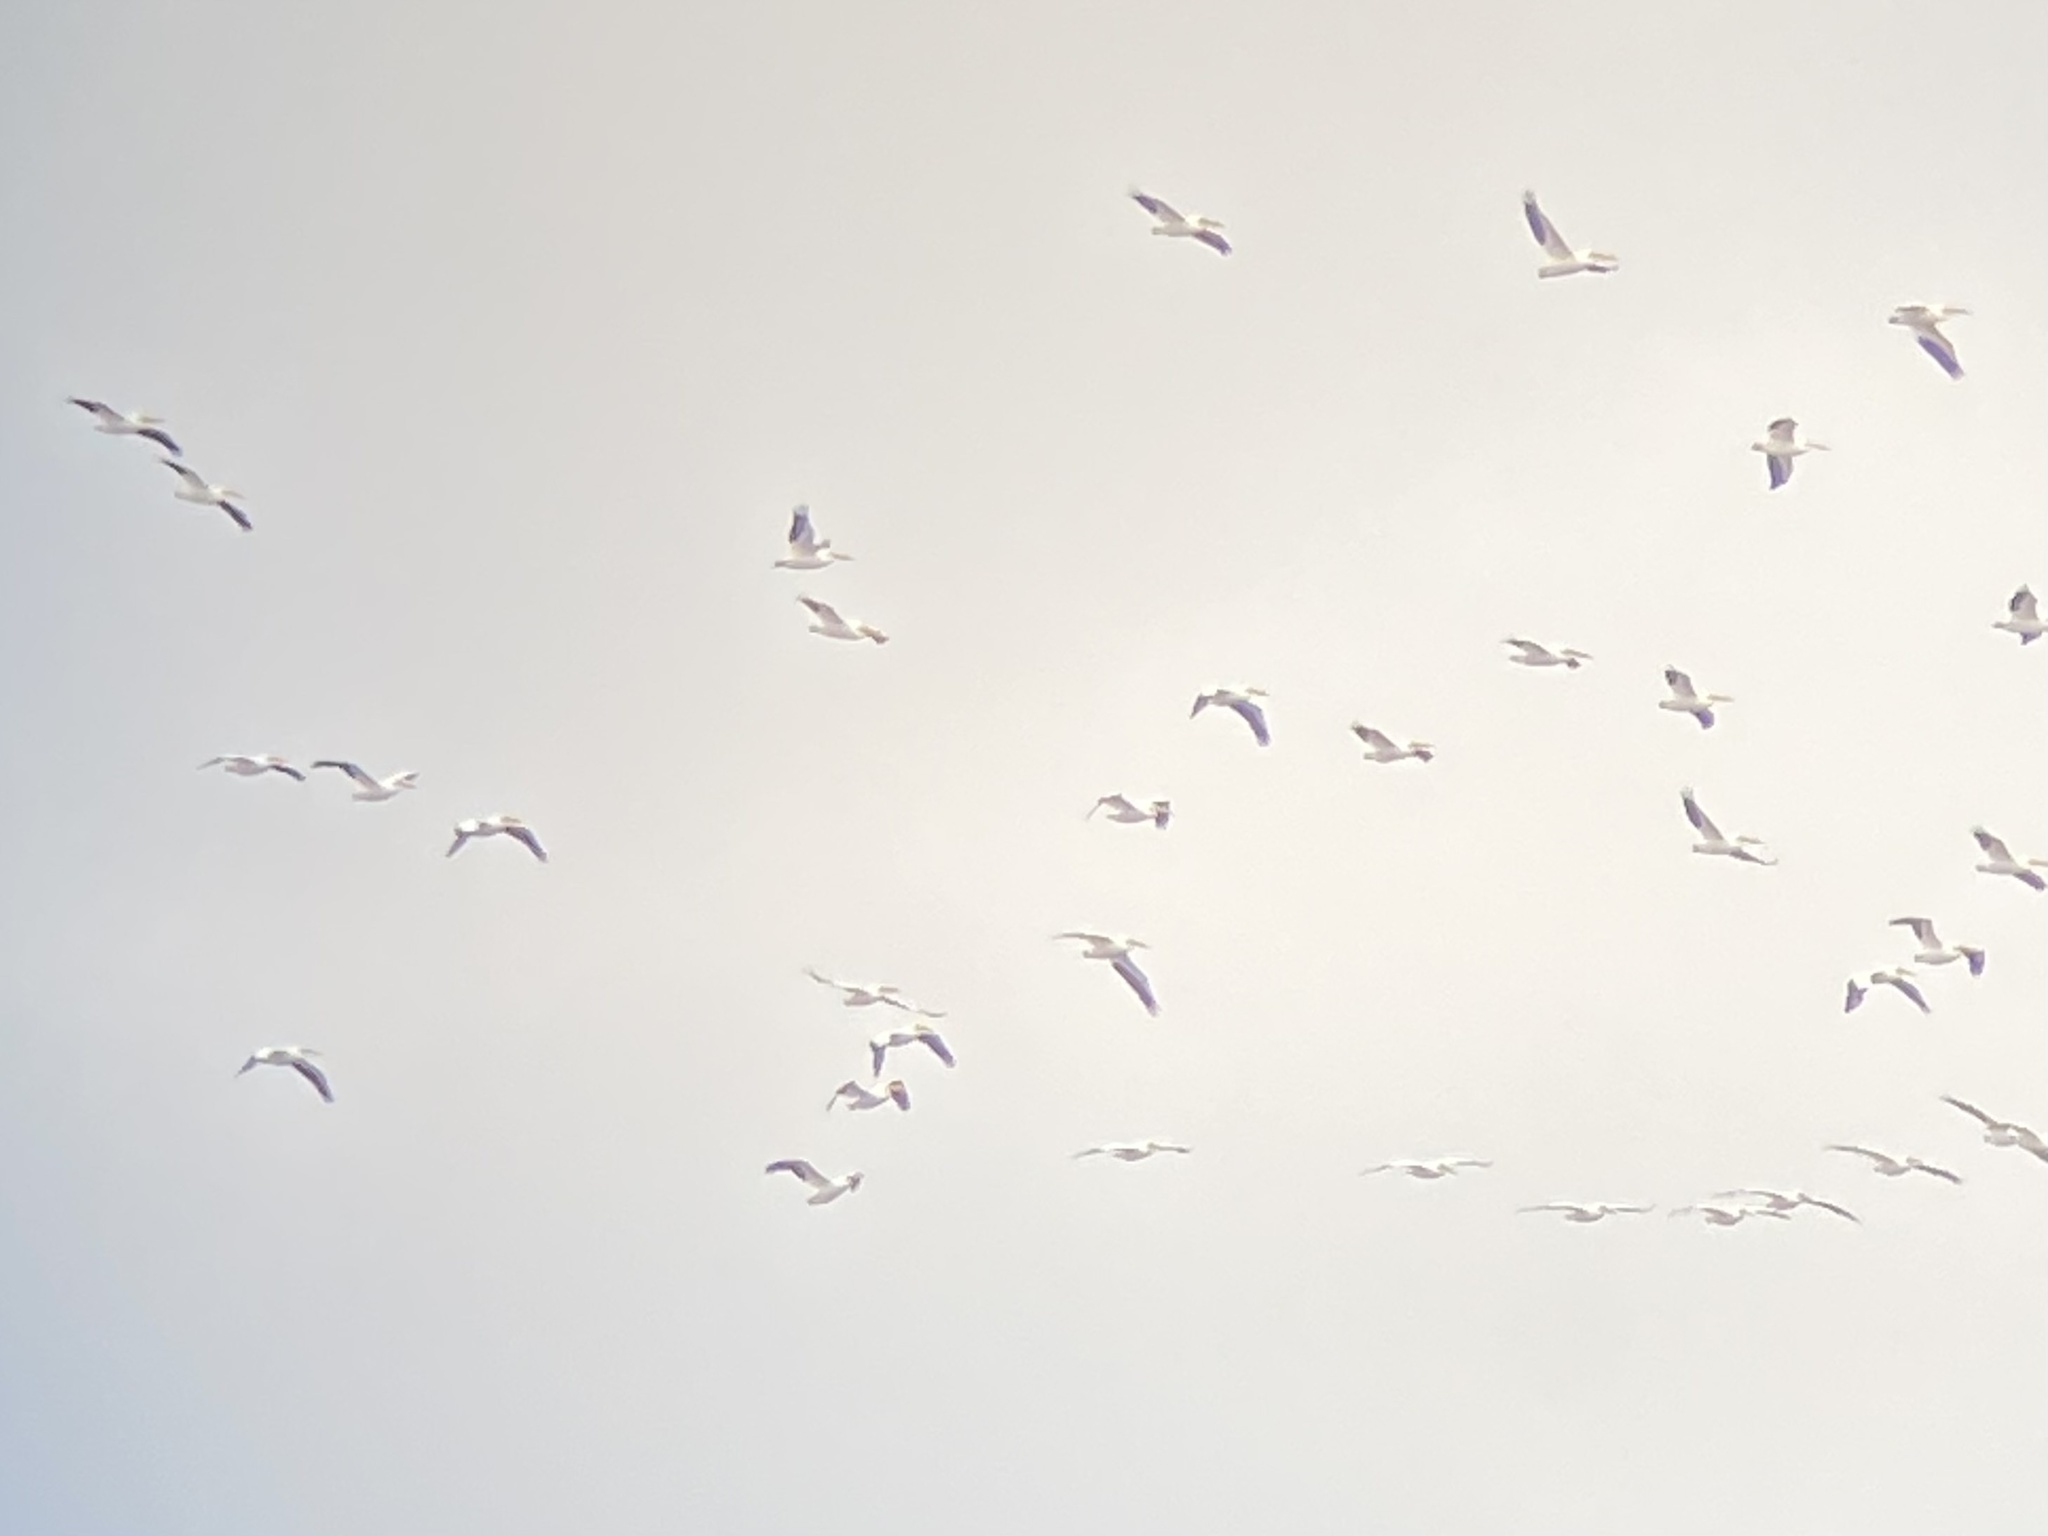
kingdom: Animalia
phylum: Chordata
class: Aves
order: Pelecaniformes
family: Pelecanidae
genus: Pelecanus
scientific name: Pelecanus erythrorhynchos
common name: American white pelican
